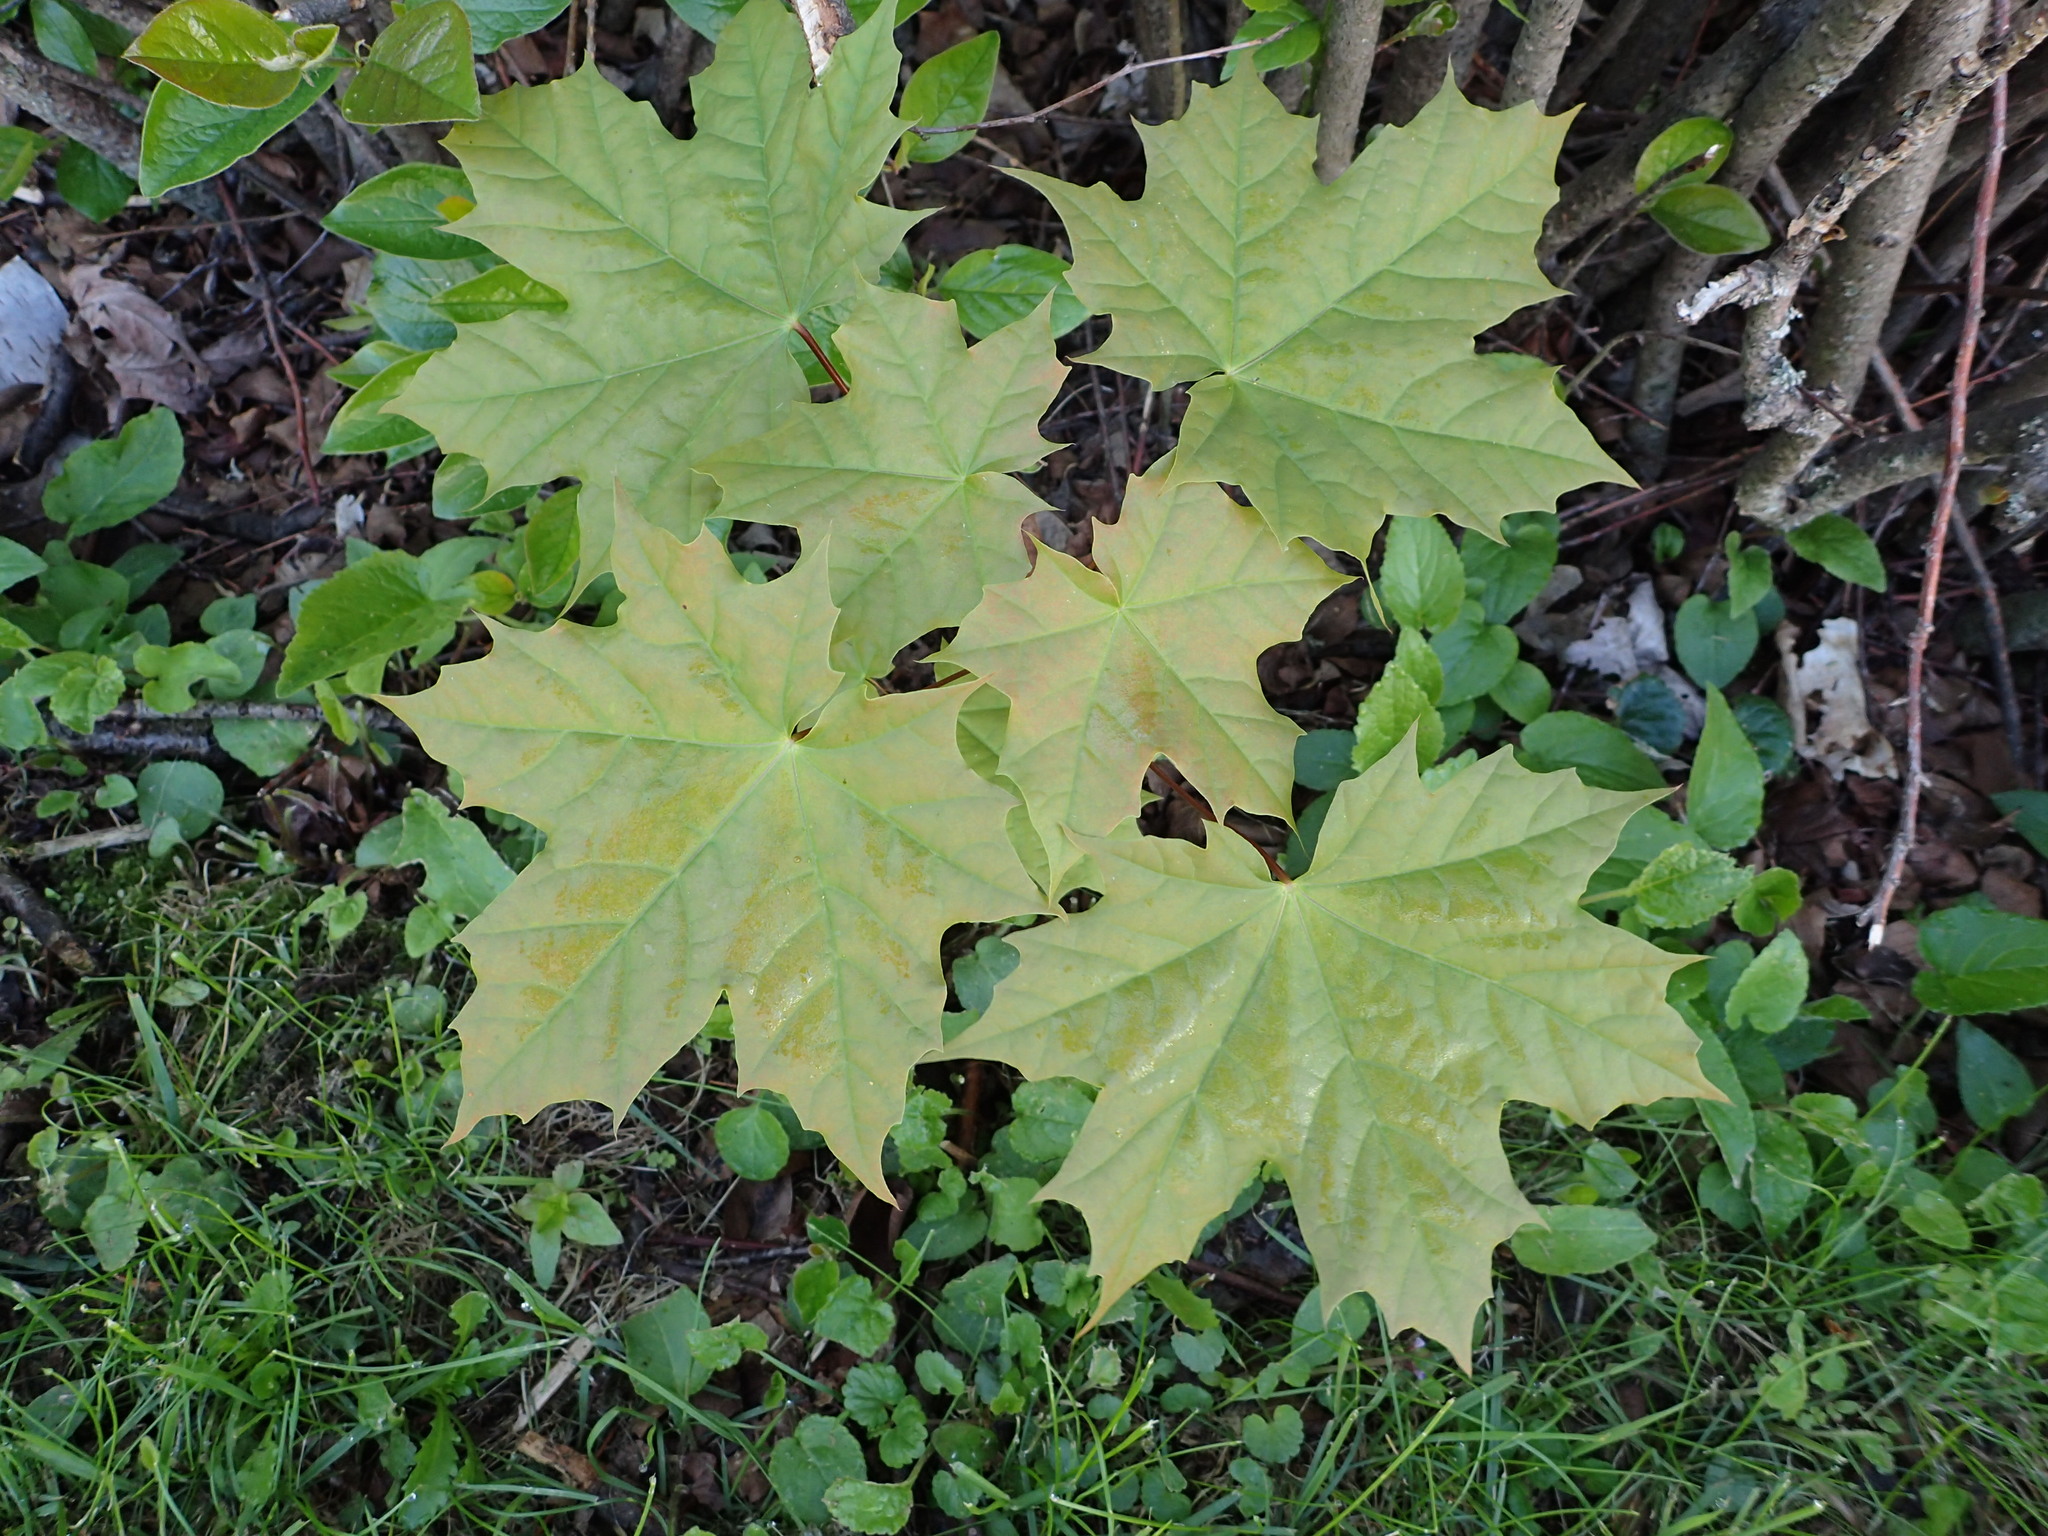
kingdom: Plantae
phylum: Tracheophyta
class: Magnoliopsida
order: Sapindales
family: Sapindaceae
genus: Acer
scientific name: Acer platanoides
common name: Norway maple
